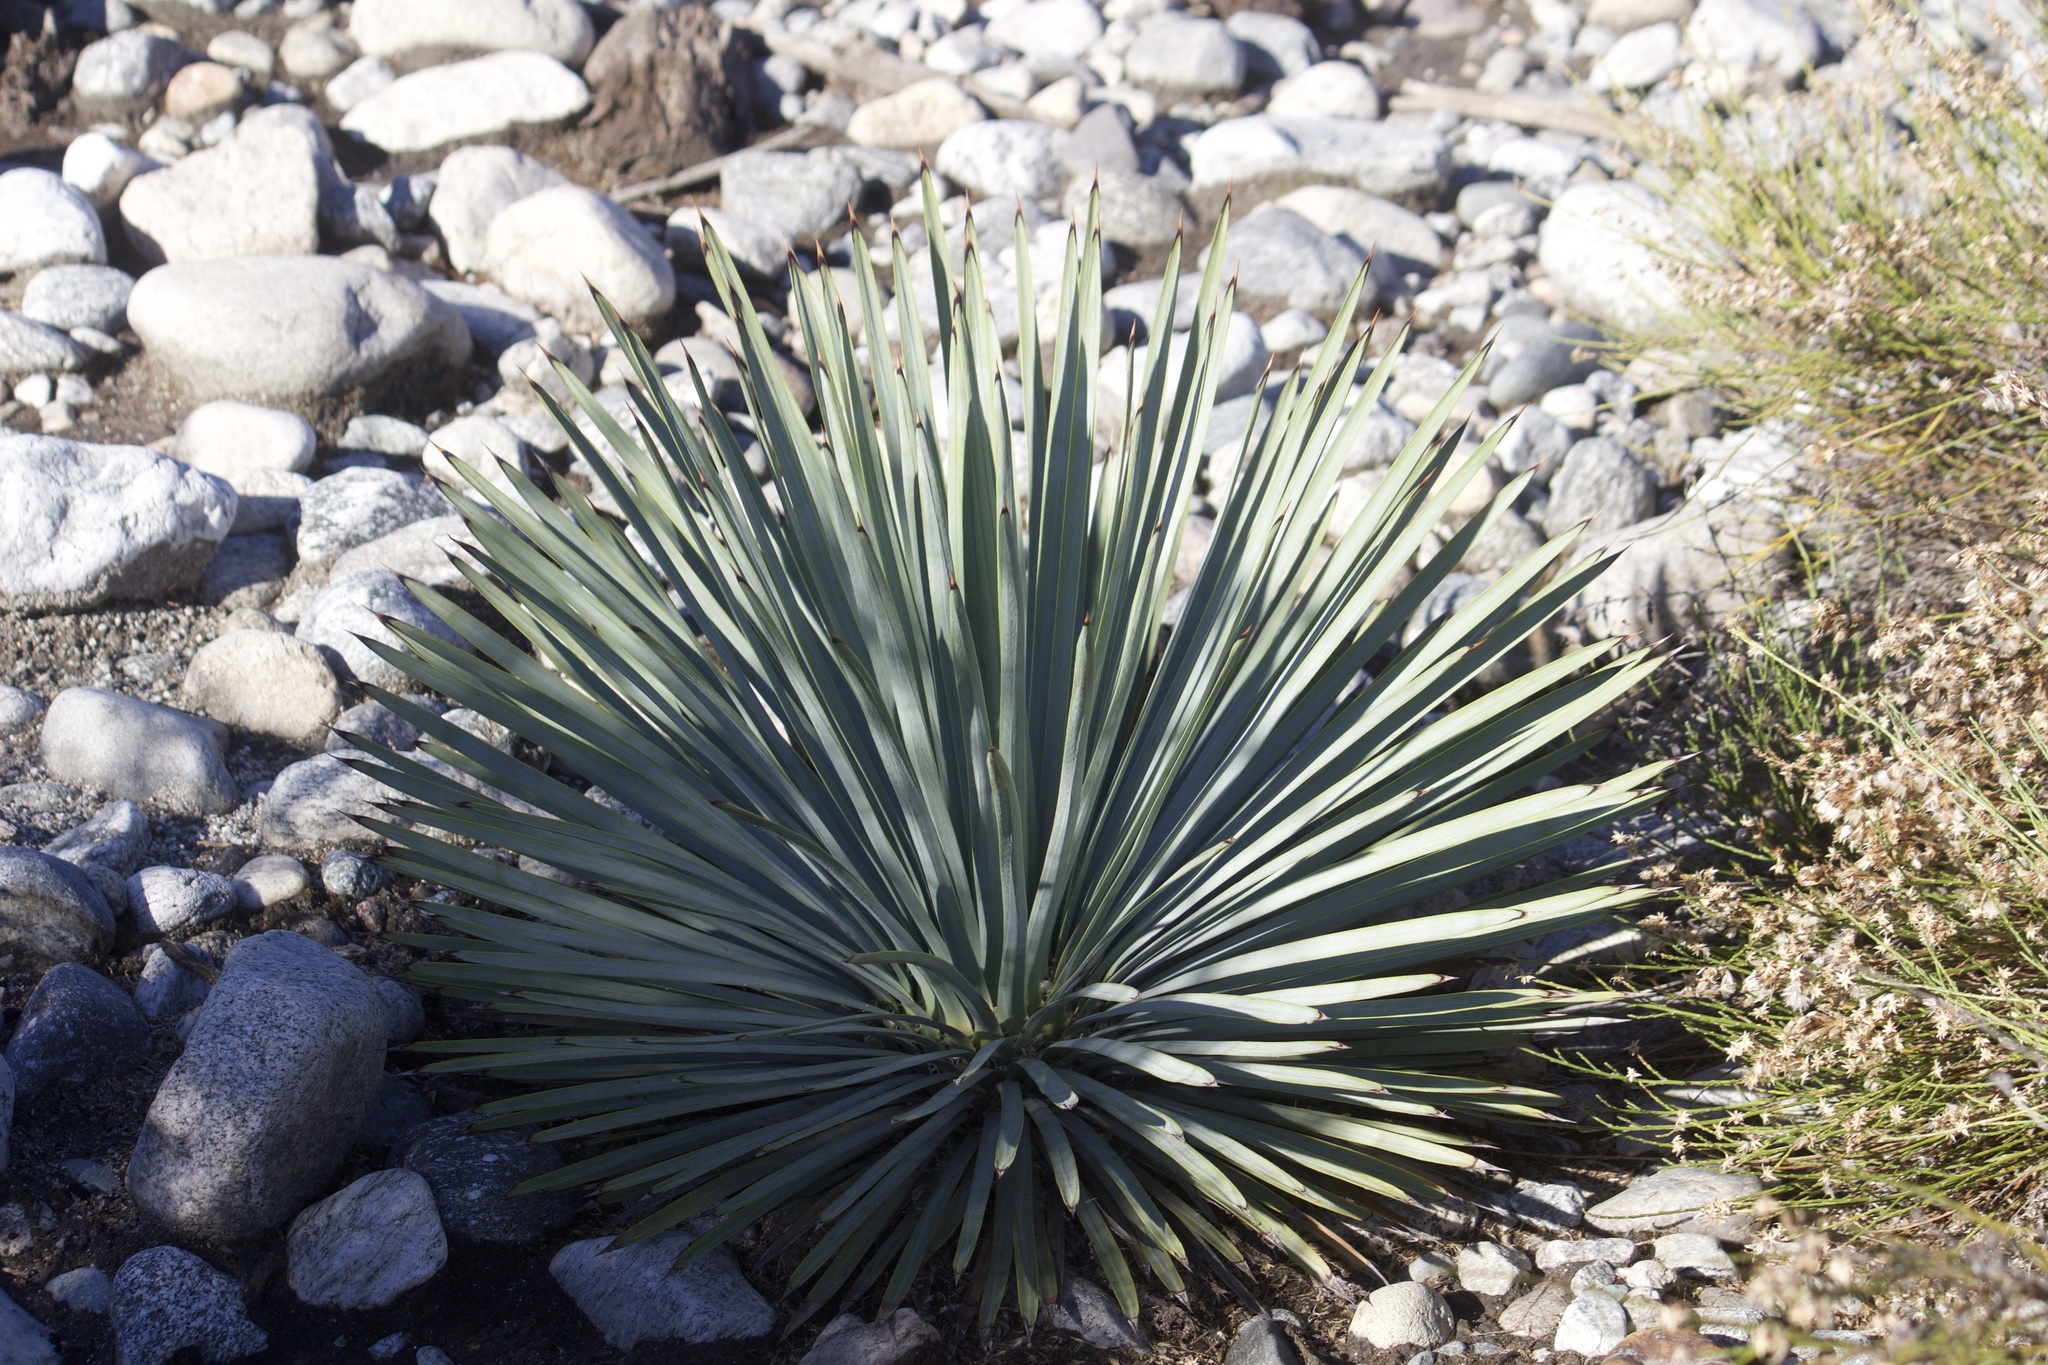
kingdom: Plantae
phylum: Tracheophyta
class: Liliopsida
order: Asparagales
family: Asparagaceae
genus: Hesperoyucca
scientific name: Hesperoyucca whipplei
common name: Our lord's-candle
